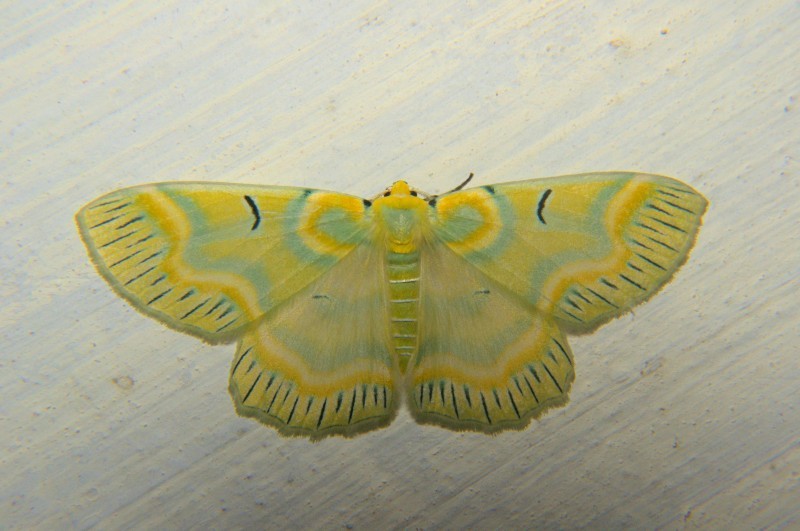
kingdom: Animalia
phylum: Arthropoda
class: Insecta
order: Lepidoptera
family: Geometridae
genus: Iotaphora
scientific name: Iotaphora iridicolor
